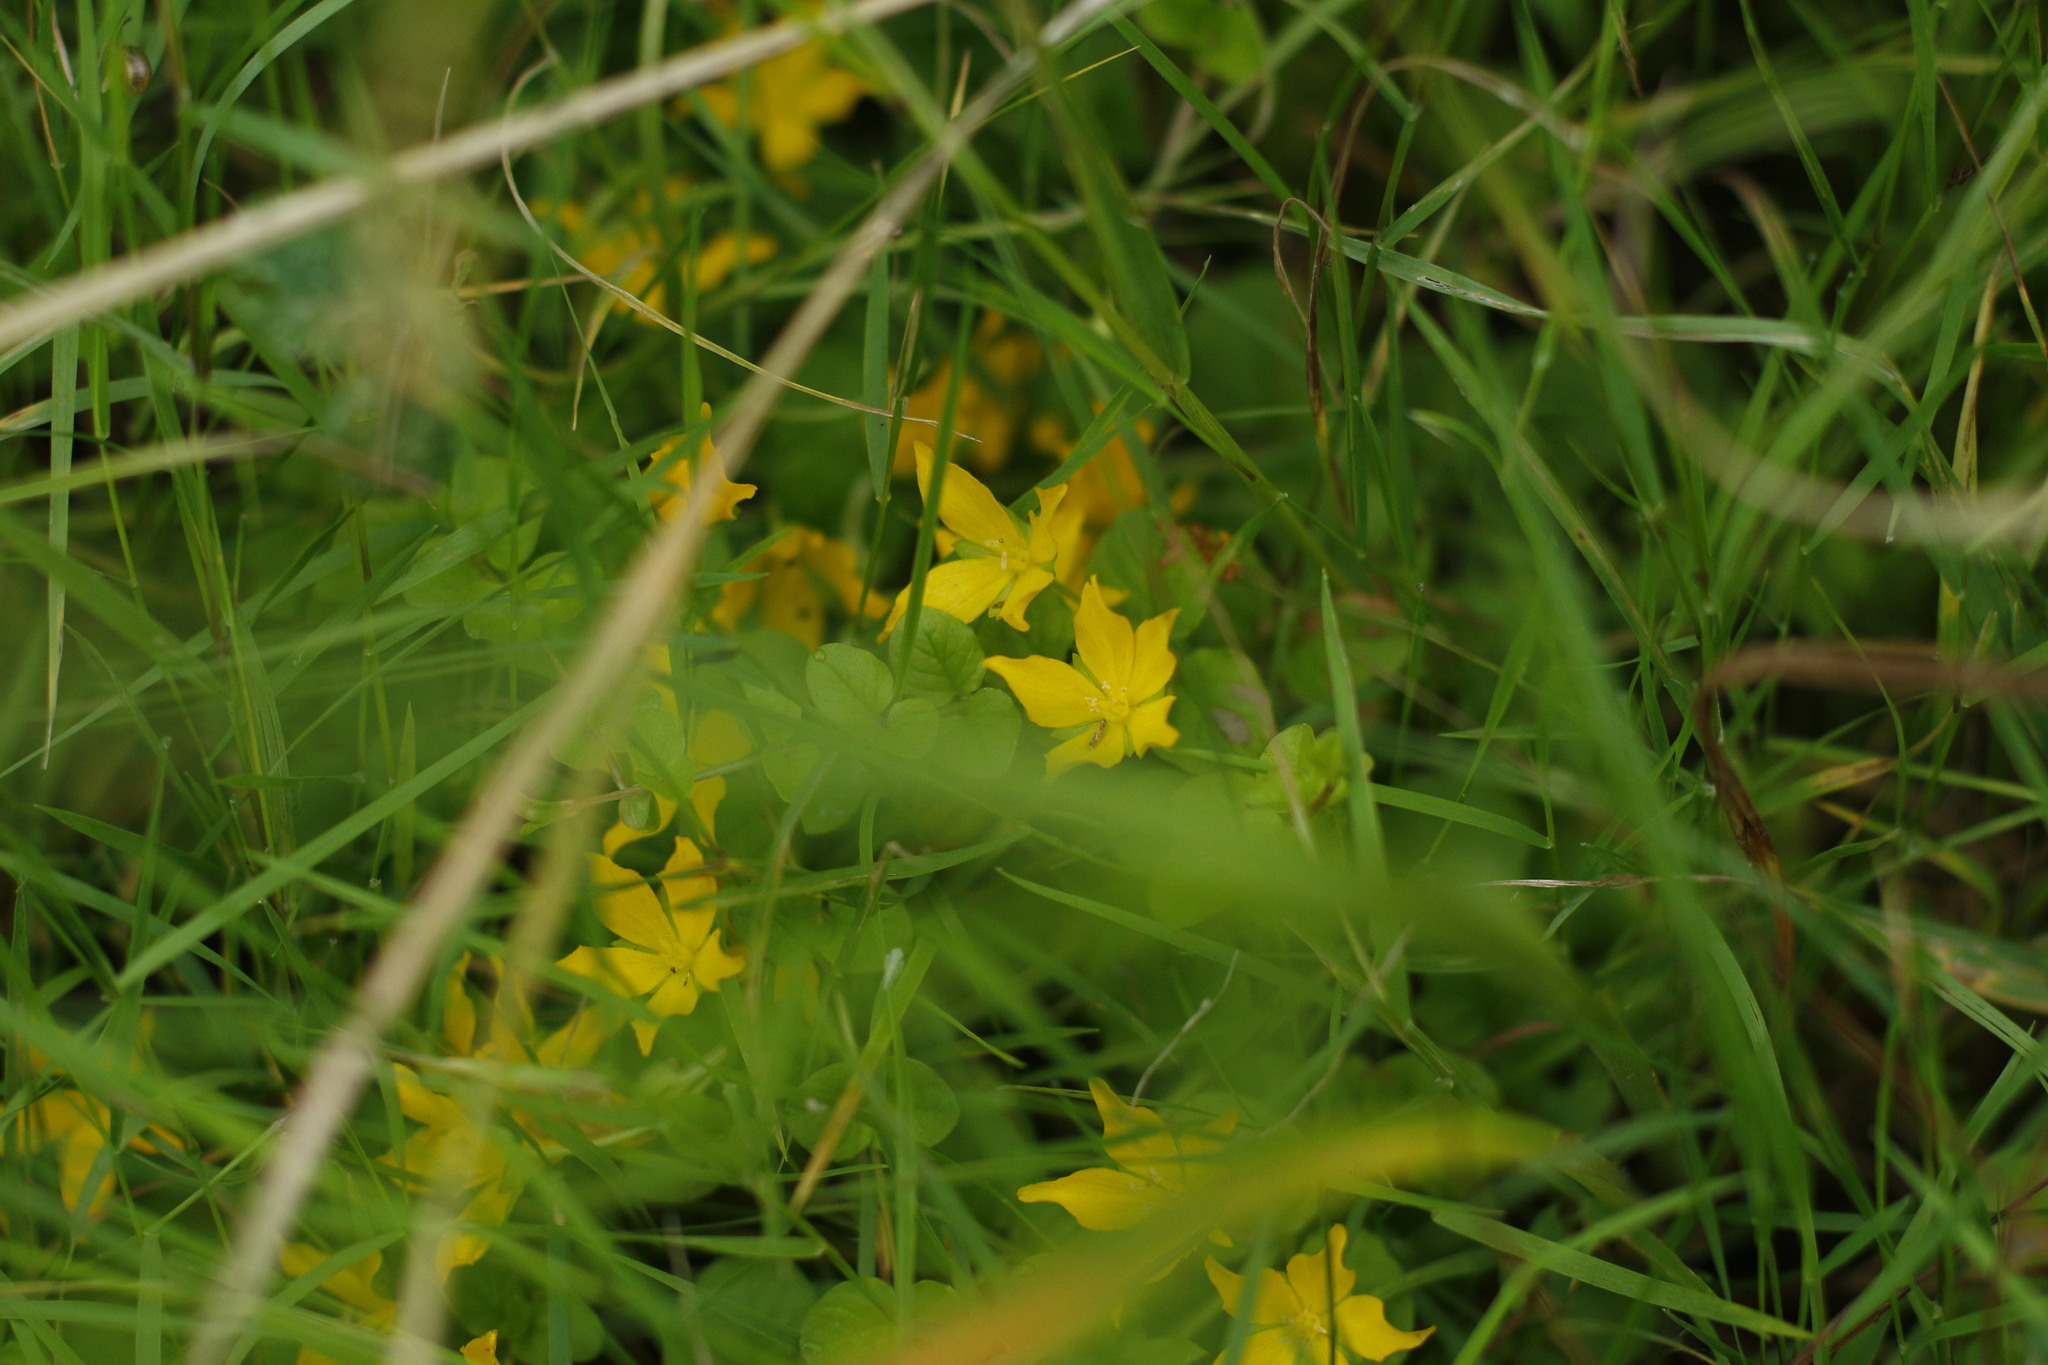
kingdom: Plantae
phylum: Tracheophyta
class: Magnoliopsida
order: Ericales
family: Primulaceae
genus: Lysimachia
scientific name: Lysimachia nummularia
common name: Moneywort
